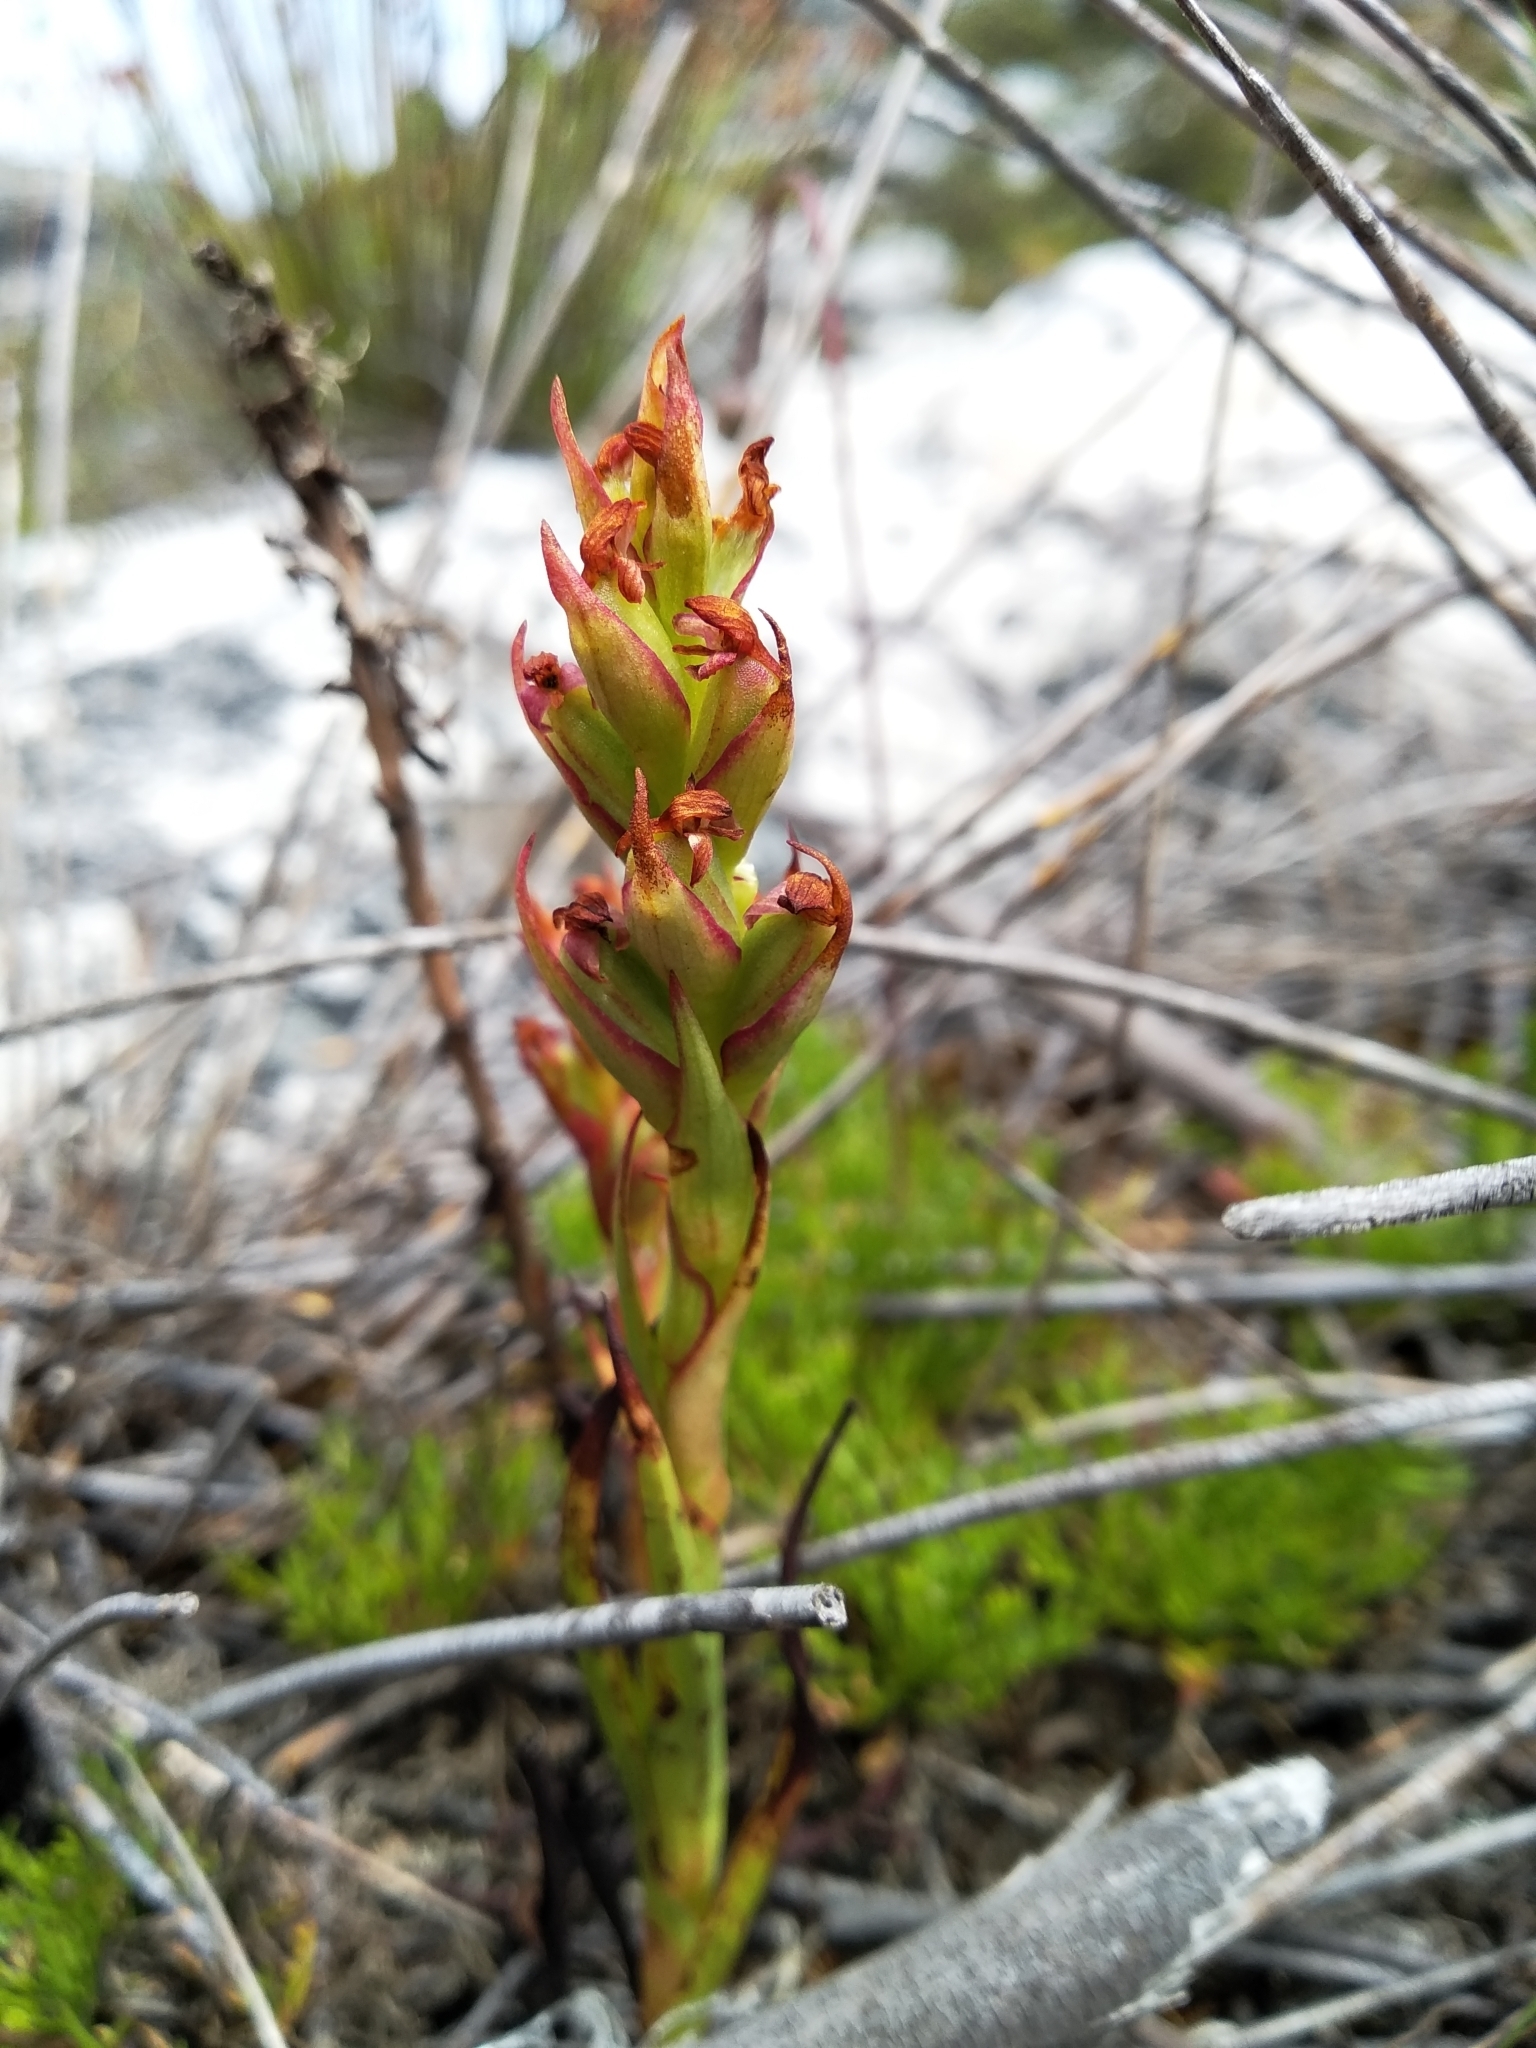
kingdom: Plantae
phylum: Tracheophyta
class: Liliopsida
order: Asparagales
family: Orchidaceae
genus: Disa
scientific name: Disa bracteata
